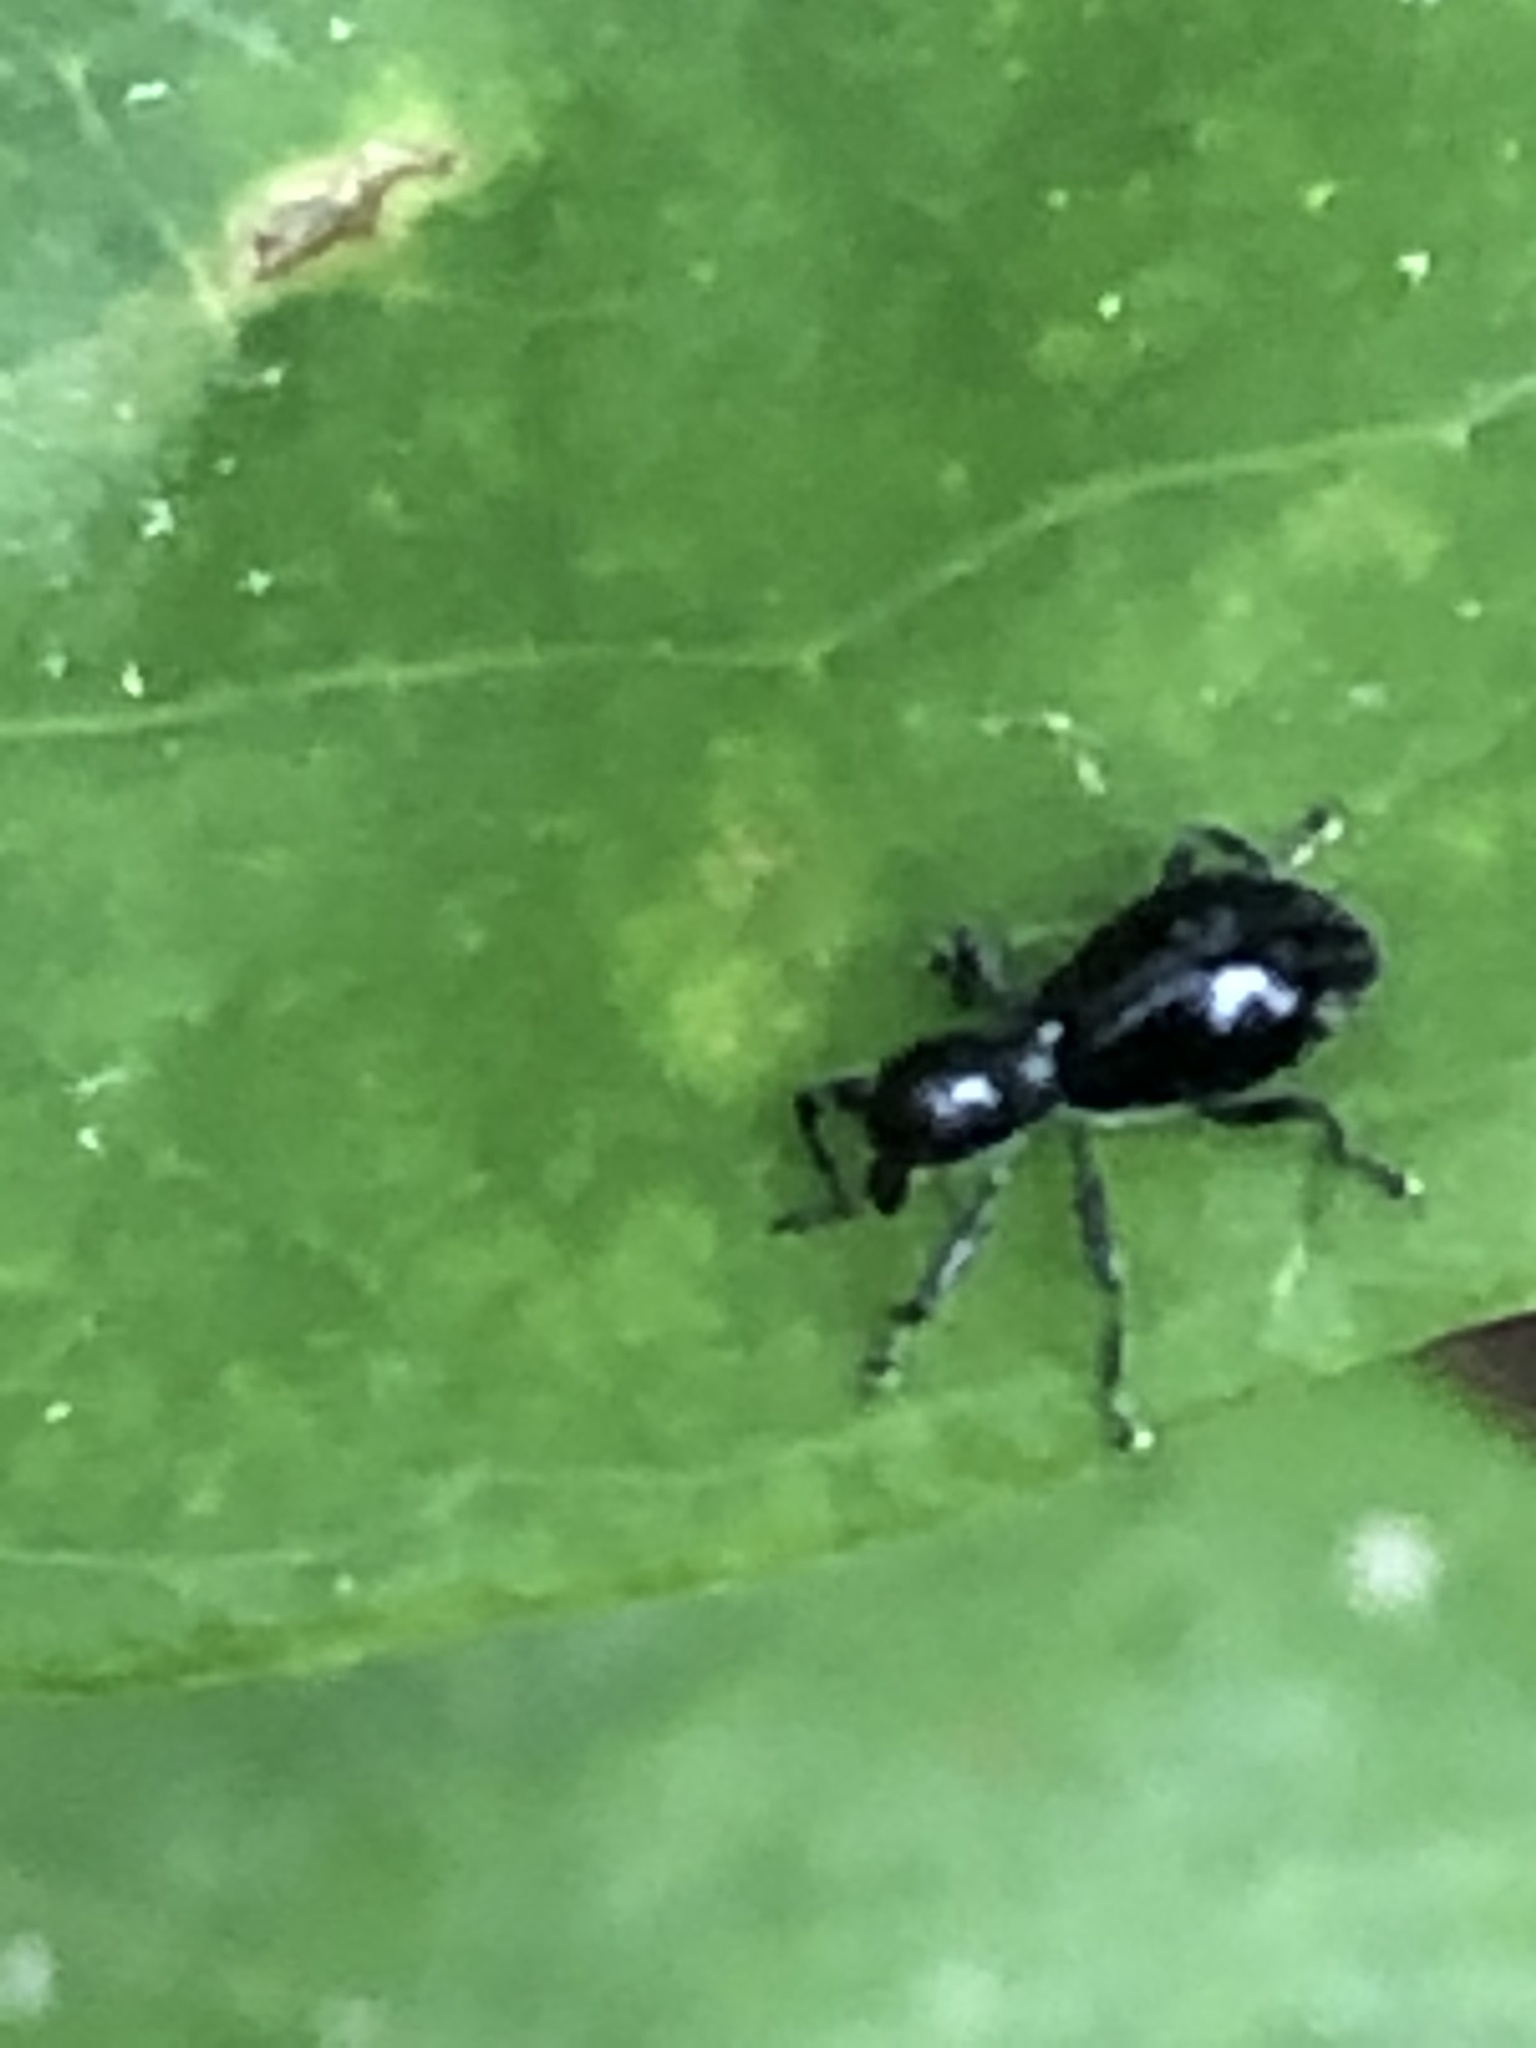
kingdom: Animalia
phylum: Arthropoda
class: Insecta
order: Coleoptera
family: Curculionidae
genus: Otidocephalus
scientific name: Otidocephalus chevrolatii
